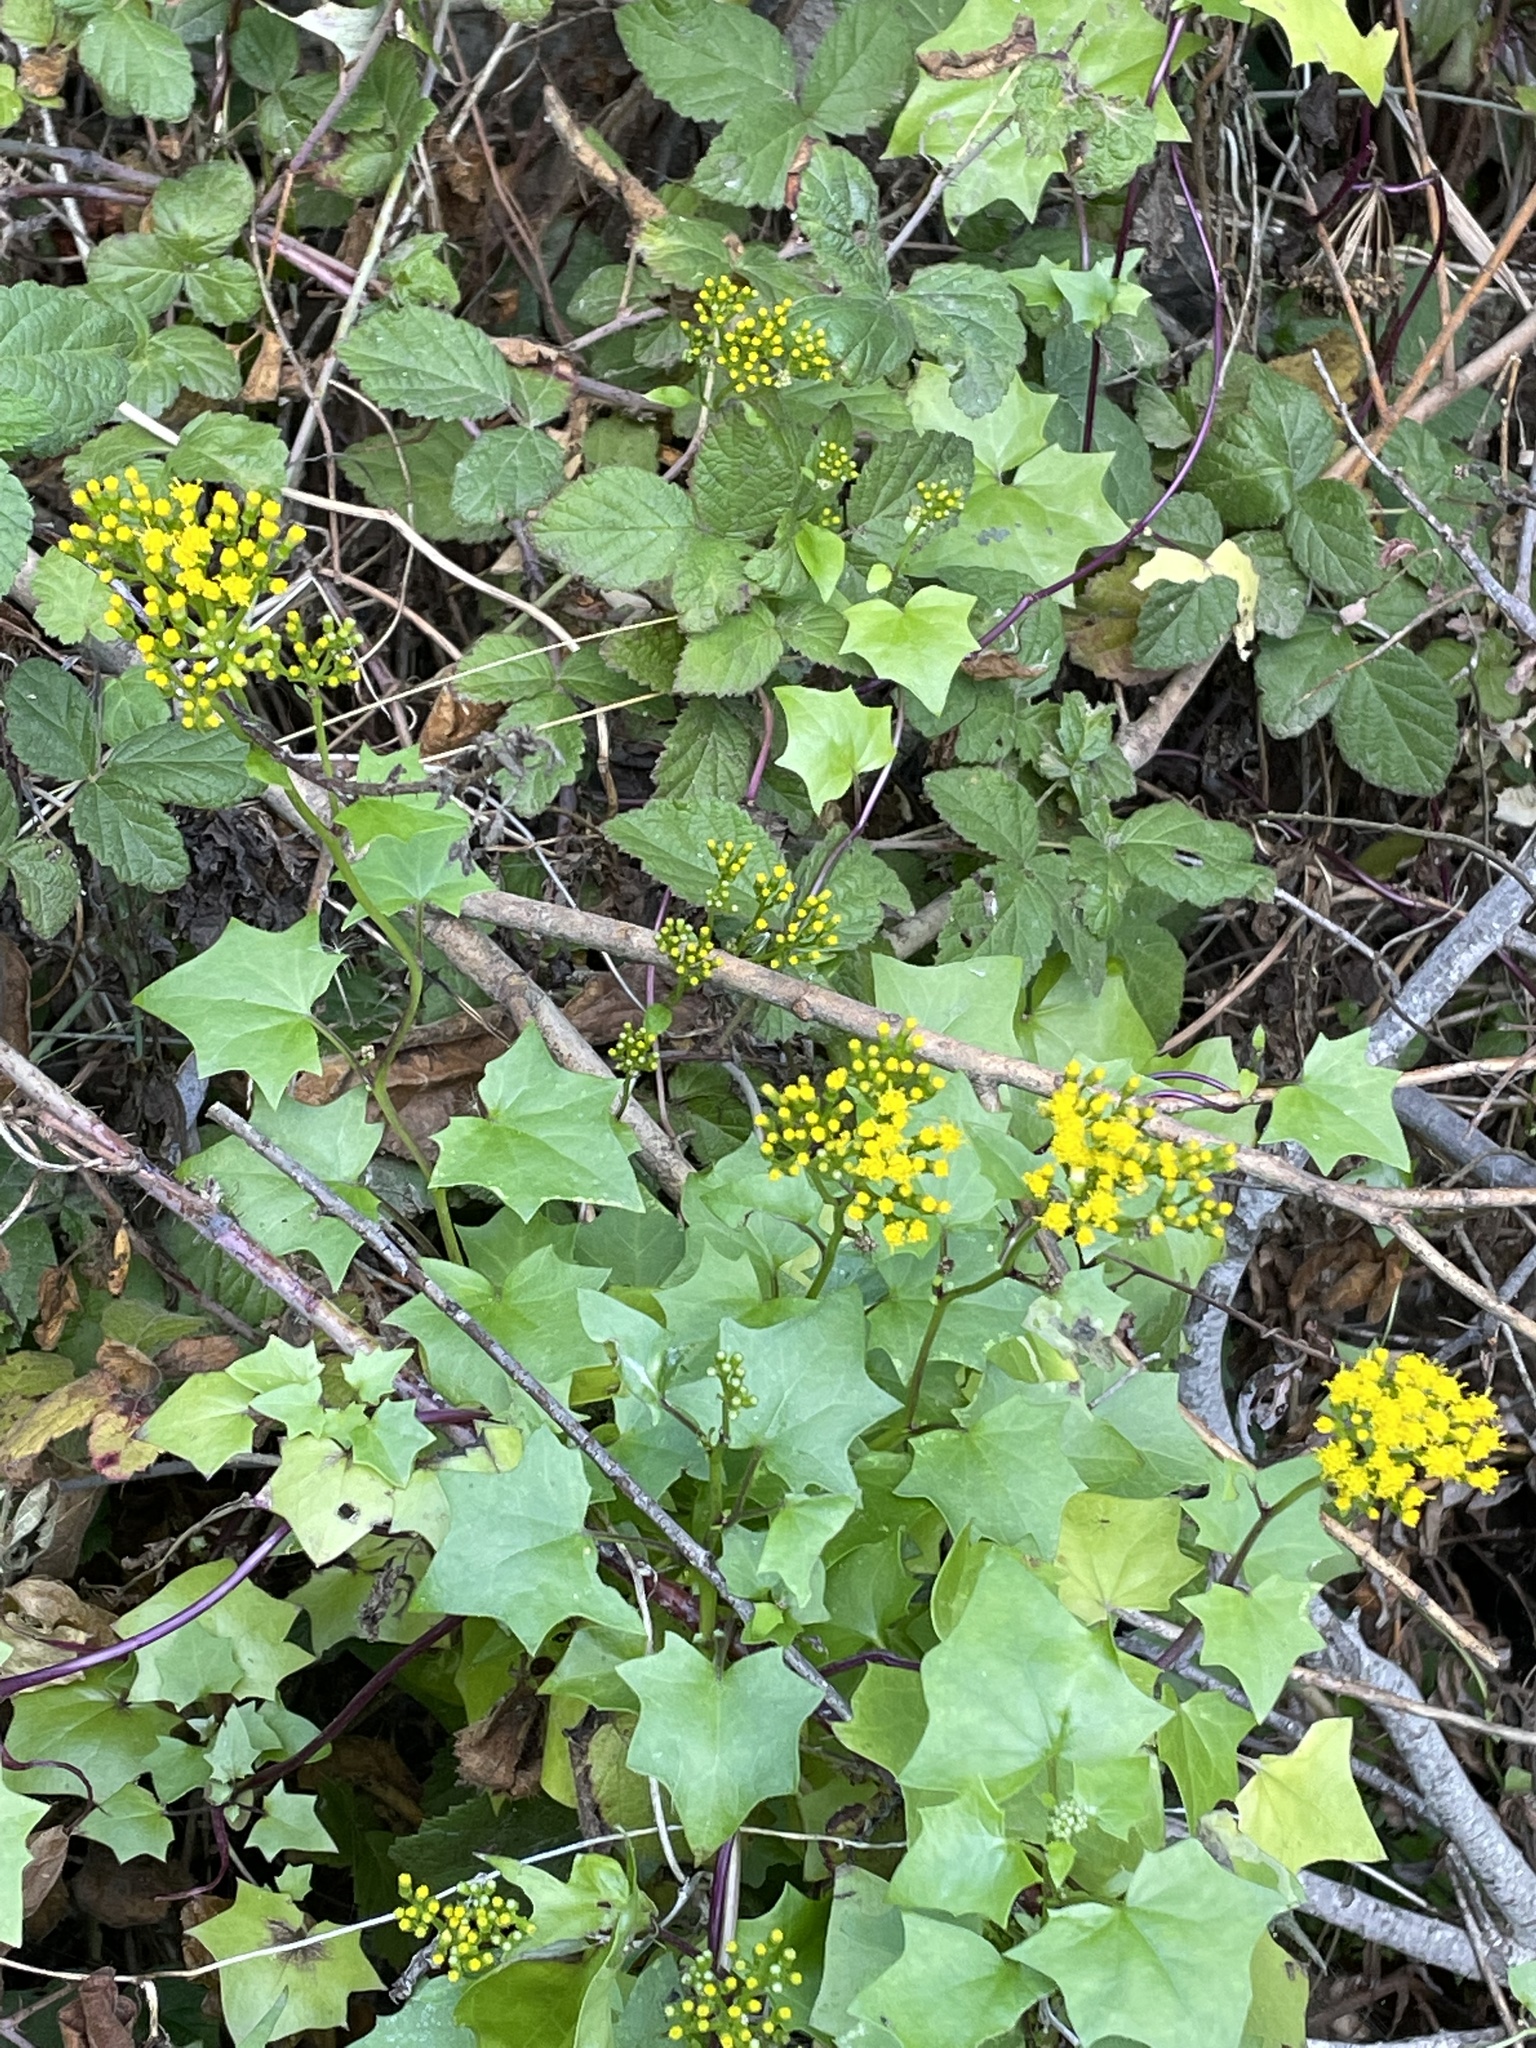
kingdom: Plantae
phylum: Tracheophyta
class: Magnoliopsida
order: Asterales
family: Asteraceae
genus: Delairea
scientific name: Delairea odorata
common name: Cape-ivy
